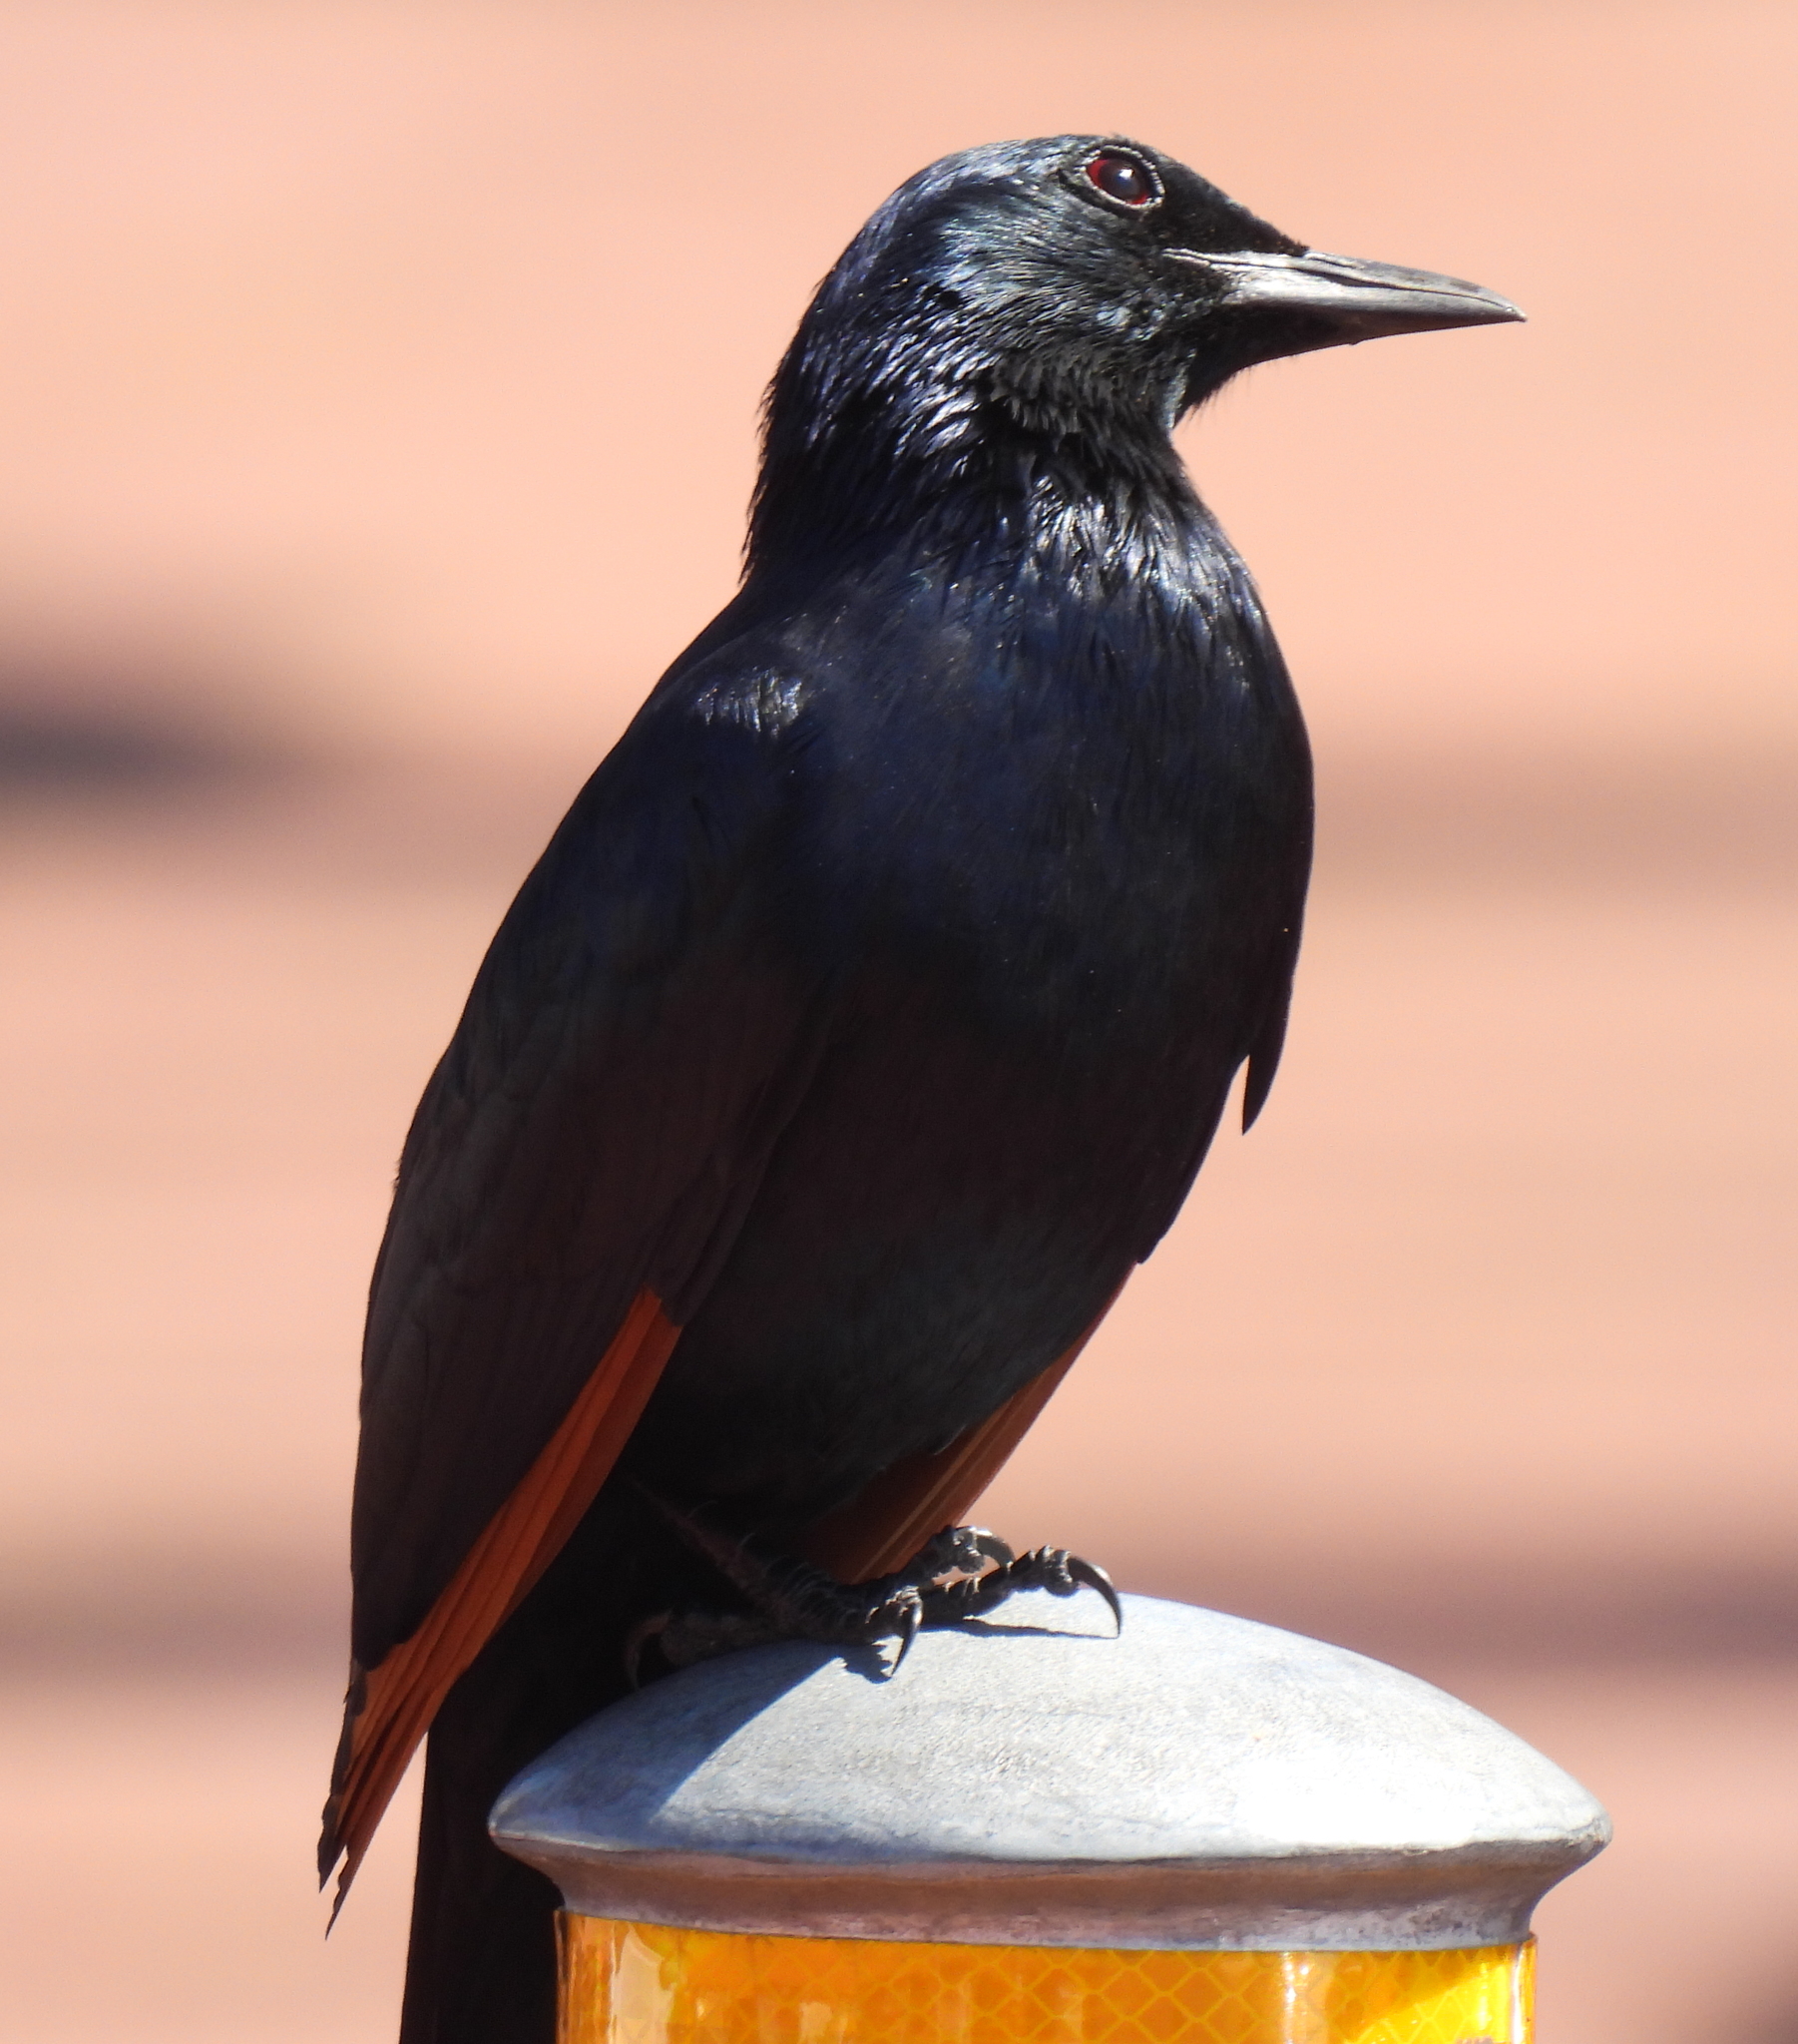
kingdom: Animalia
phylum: Chordata
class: Aves
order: Passeriformes
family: Sturnidae
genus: Onychognathus
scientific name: Onychognathus morio
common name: Red-winged starling
